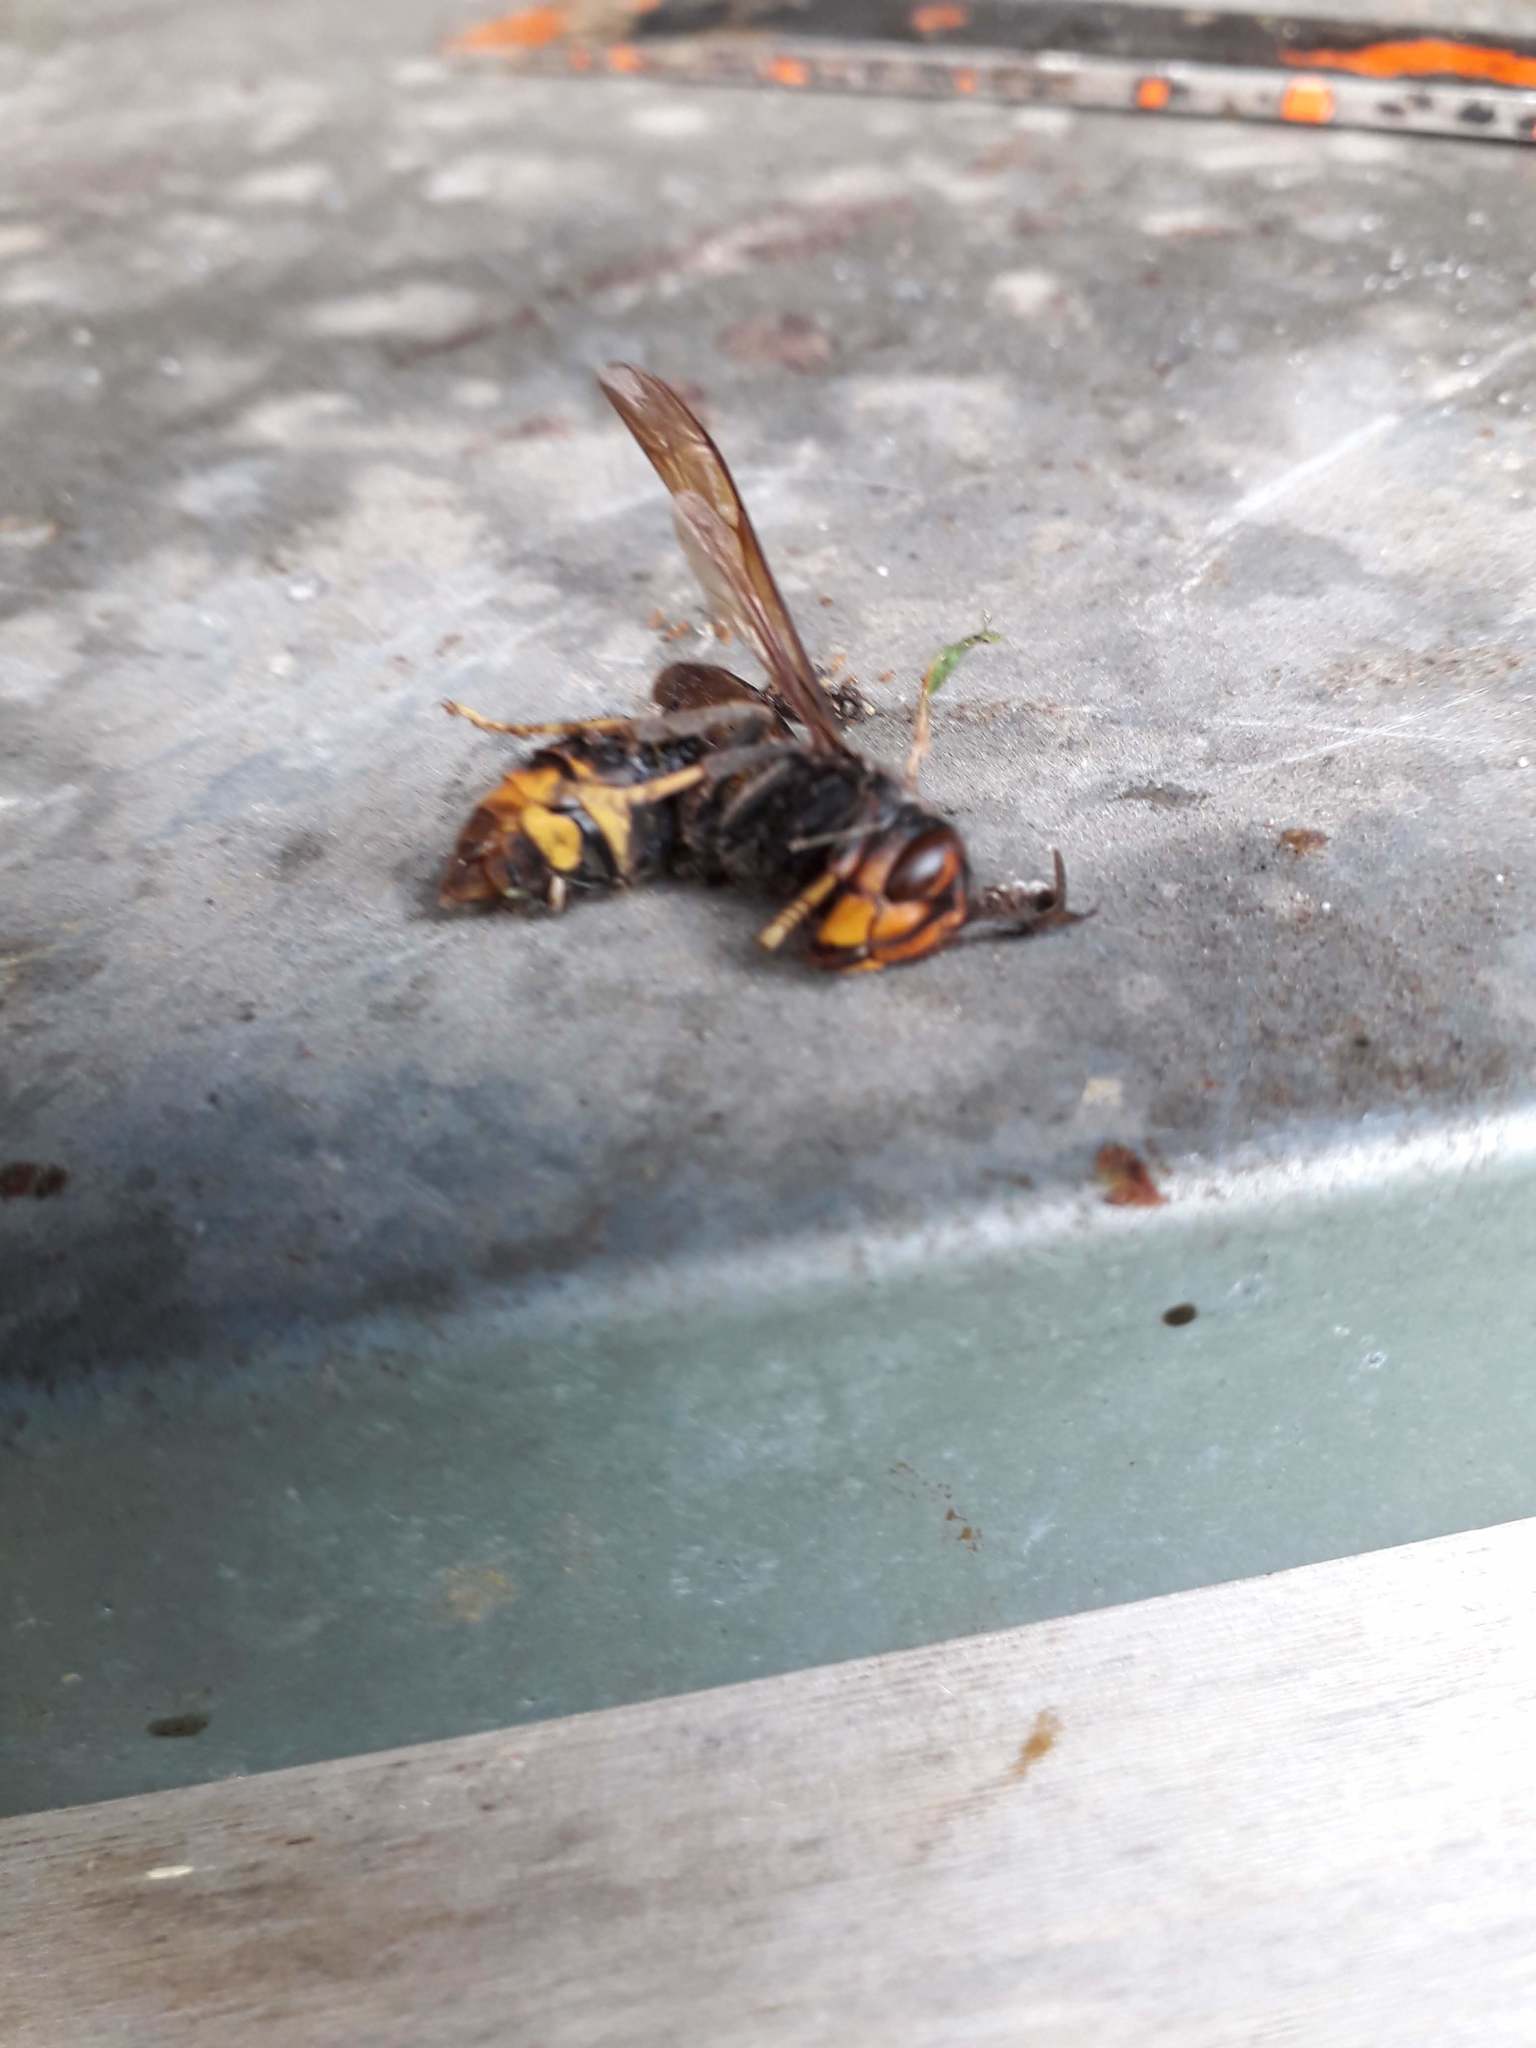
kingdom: Animalia
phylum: Arthropoda
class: Insecta
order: Hymenoptera
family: Vespidae
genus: Vespa
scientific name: Vespa velutina
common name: Asian hornet
